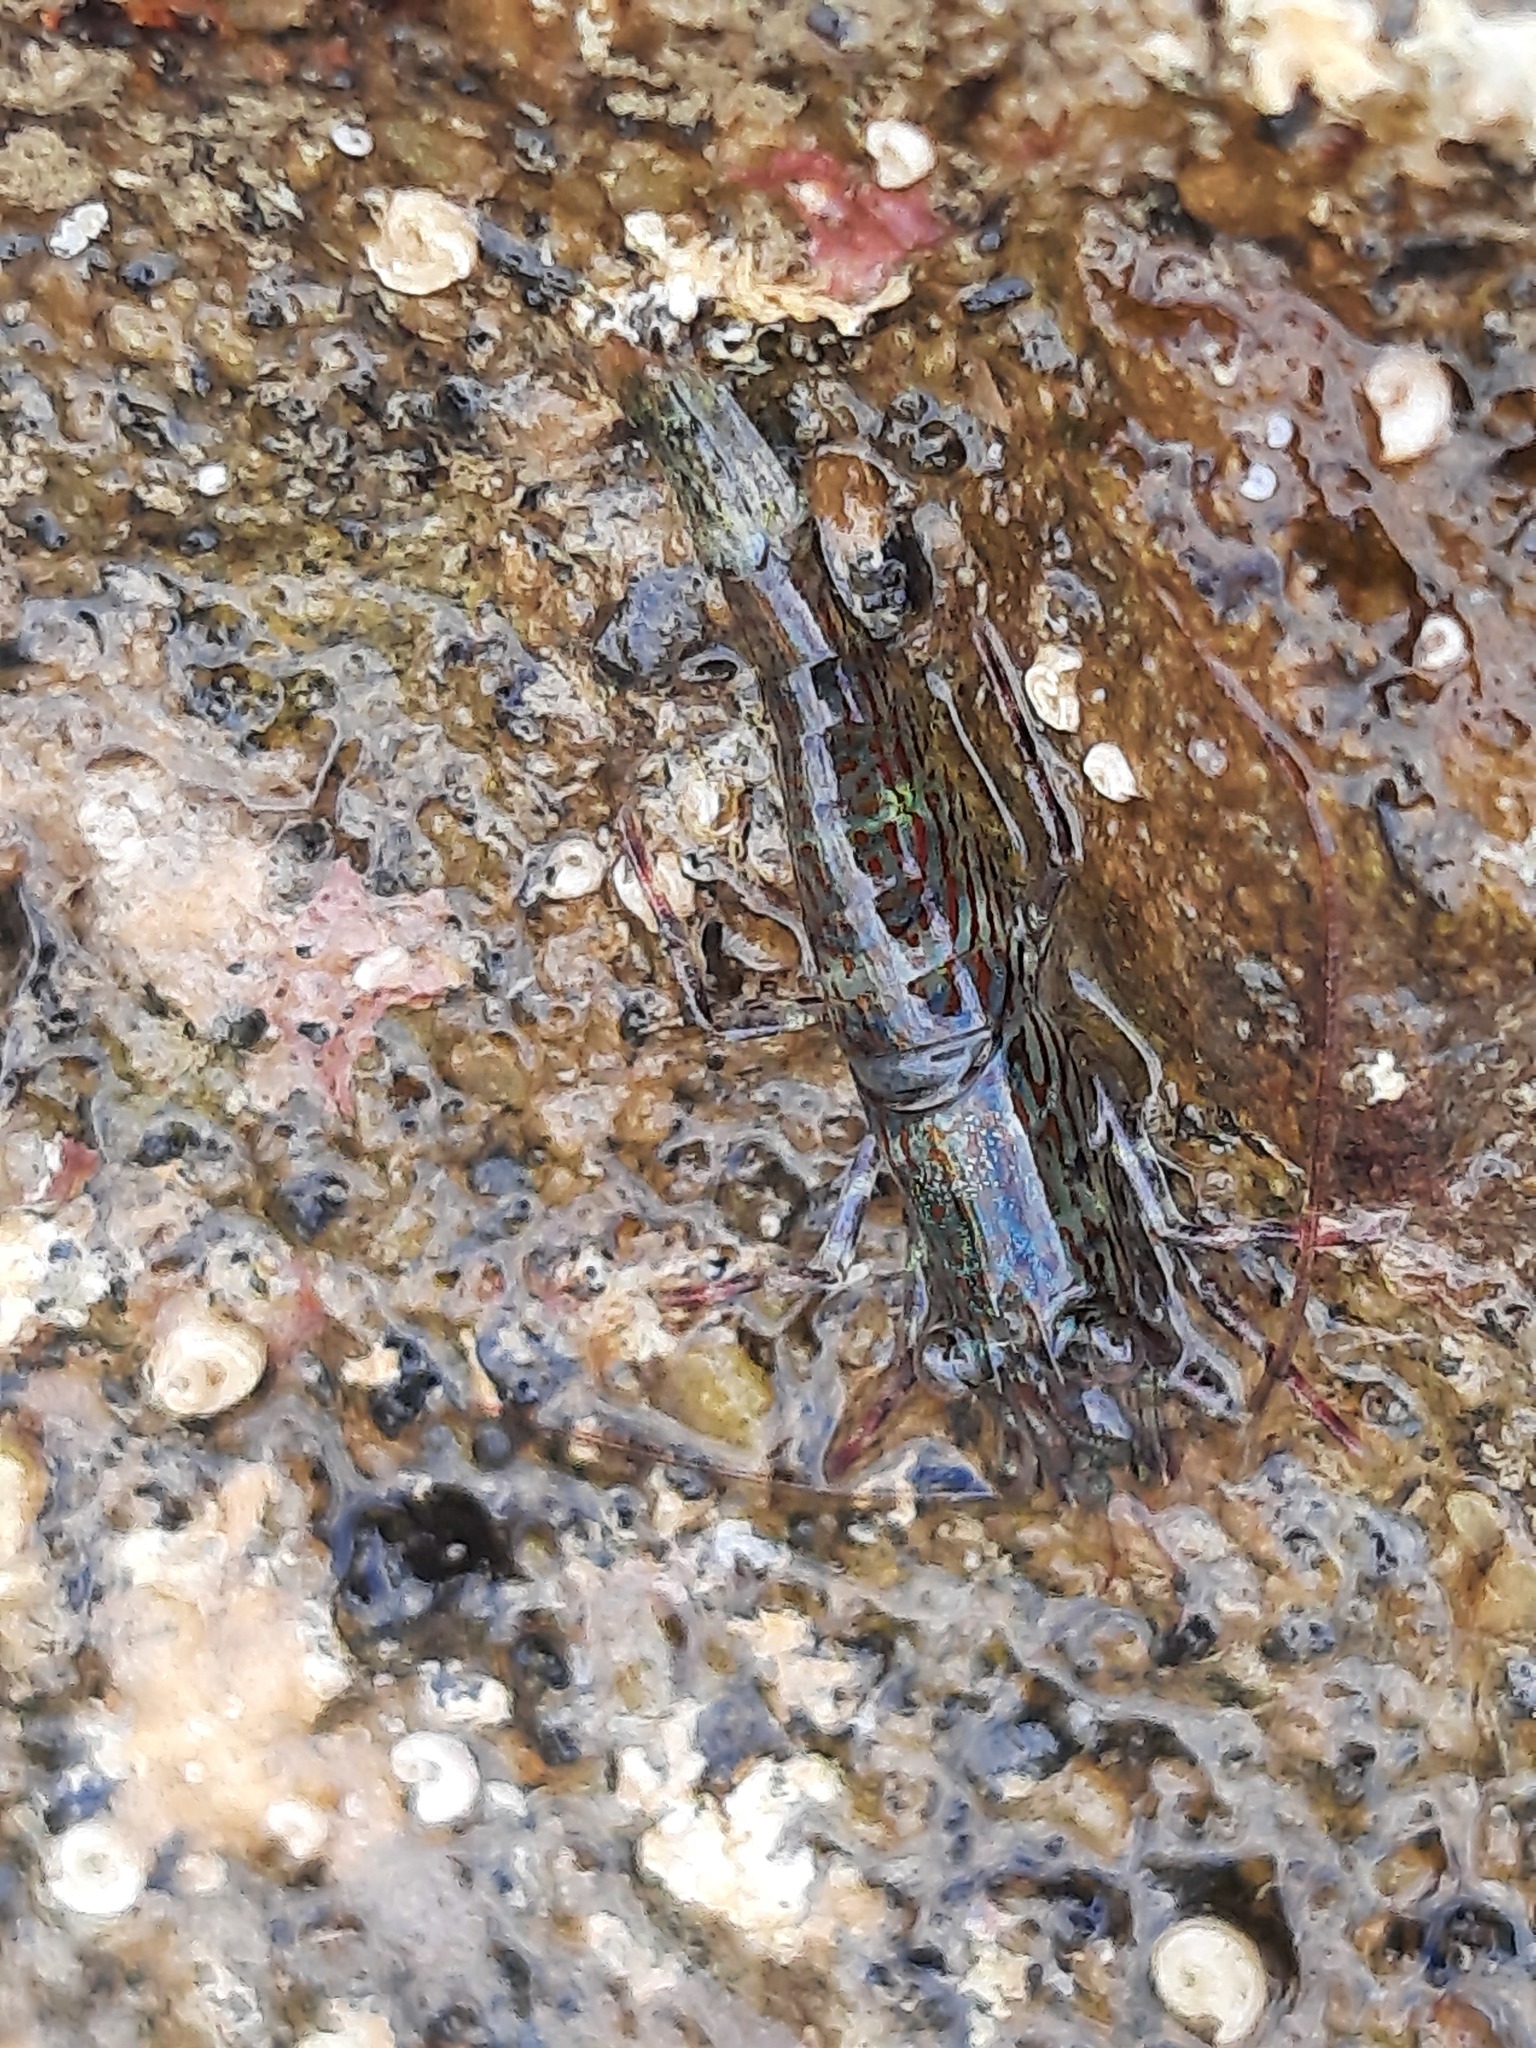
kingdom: Animalia
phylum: Arthropoda
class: Malacostraca
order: Decapoda
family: Hippolytidae
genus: Alope
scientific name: Alope spinifrons
